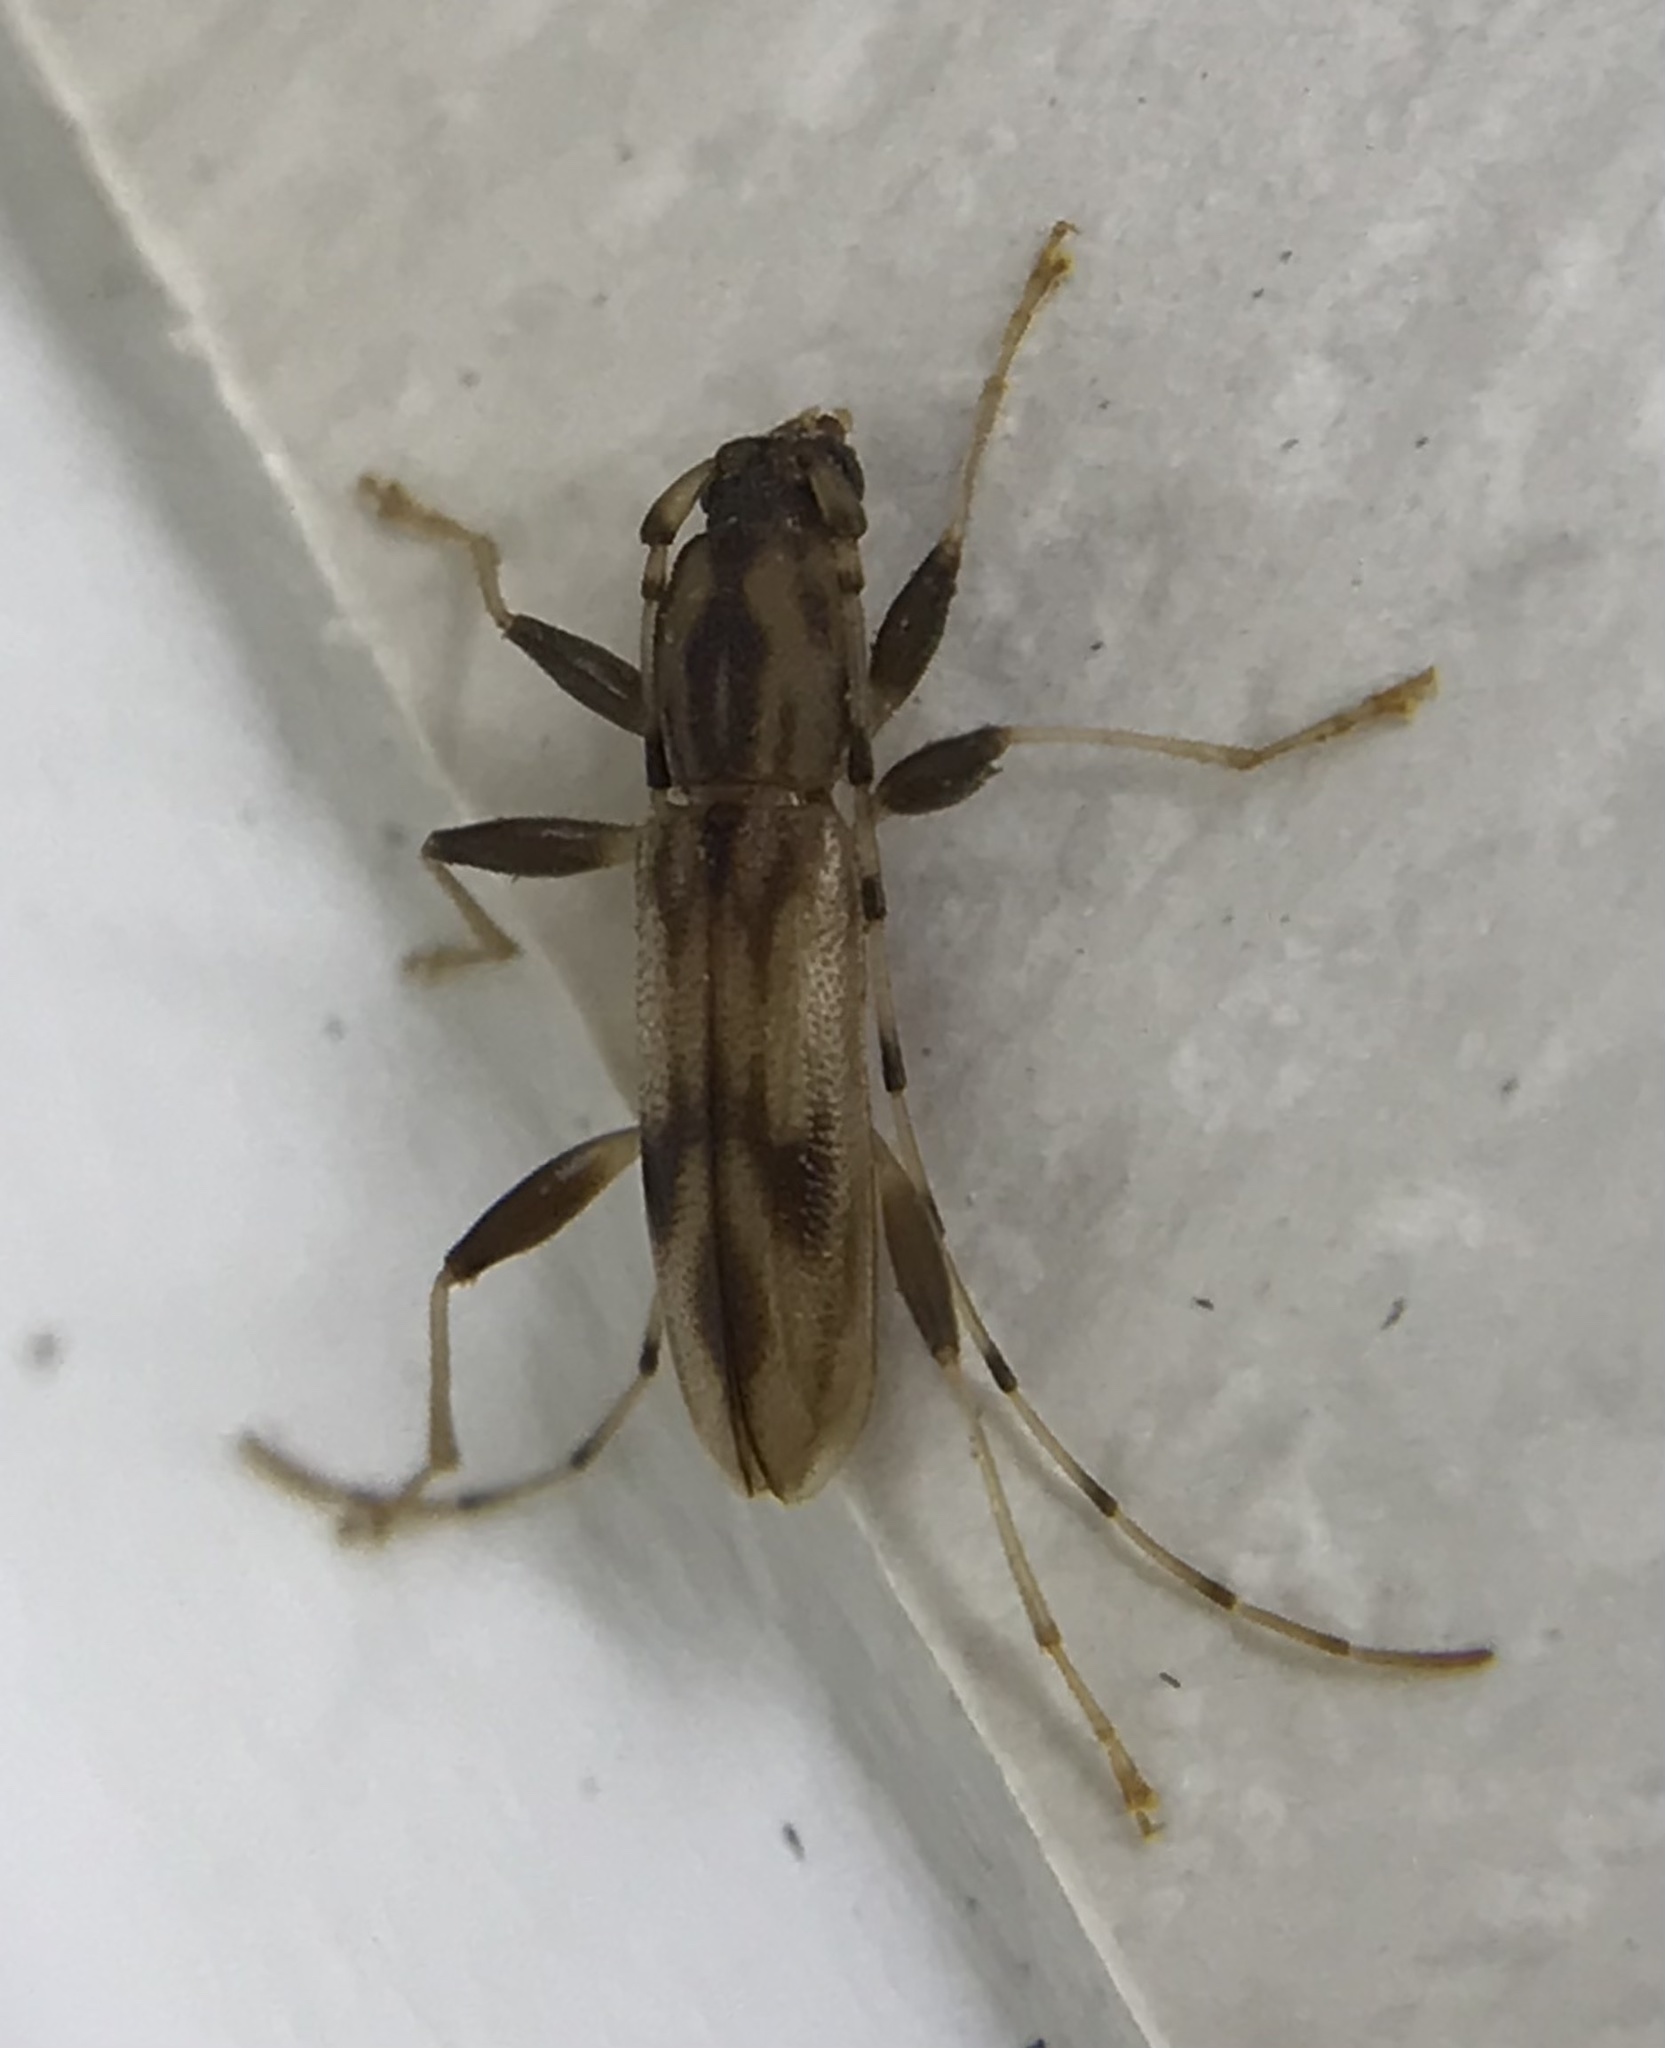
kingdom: Animalia
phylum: Arthropoda
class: Insecta
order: Coleoptera
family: Cerambycidae
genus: Curius
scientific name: Curius dentatus
